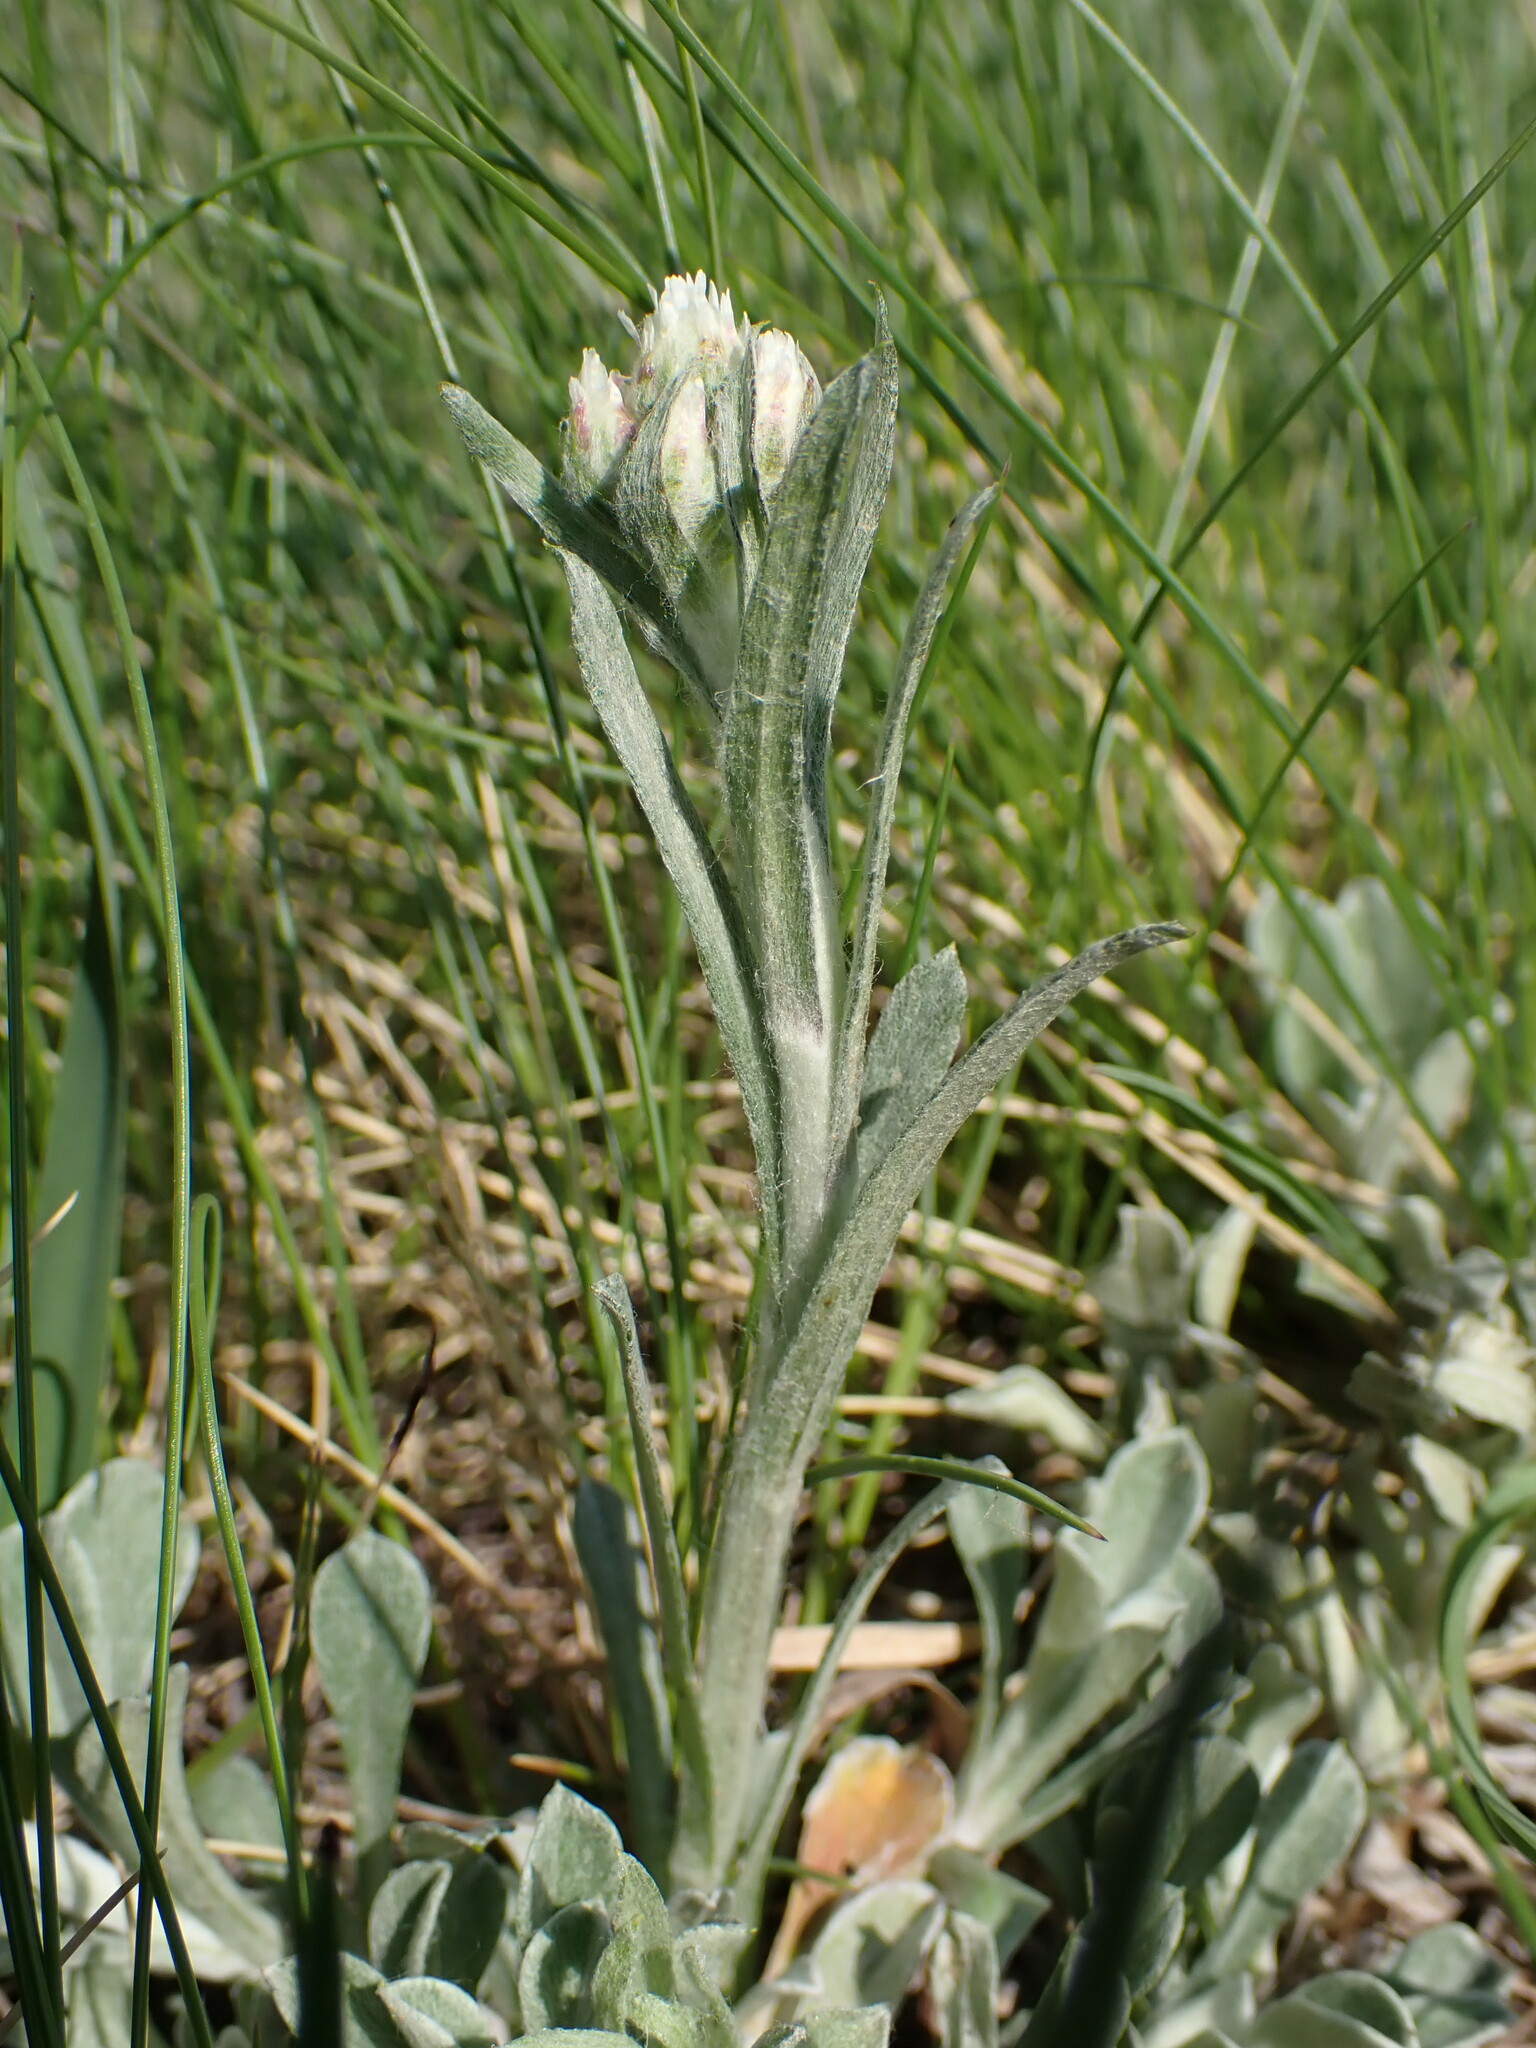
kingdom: Plantae
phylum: Tracheophyta
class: Magnoliopsida
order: Asterales
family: Asteraceae
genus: Antennaria
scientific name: Antennaria dioica
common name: Mountain everlasting
